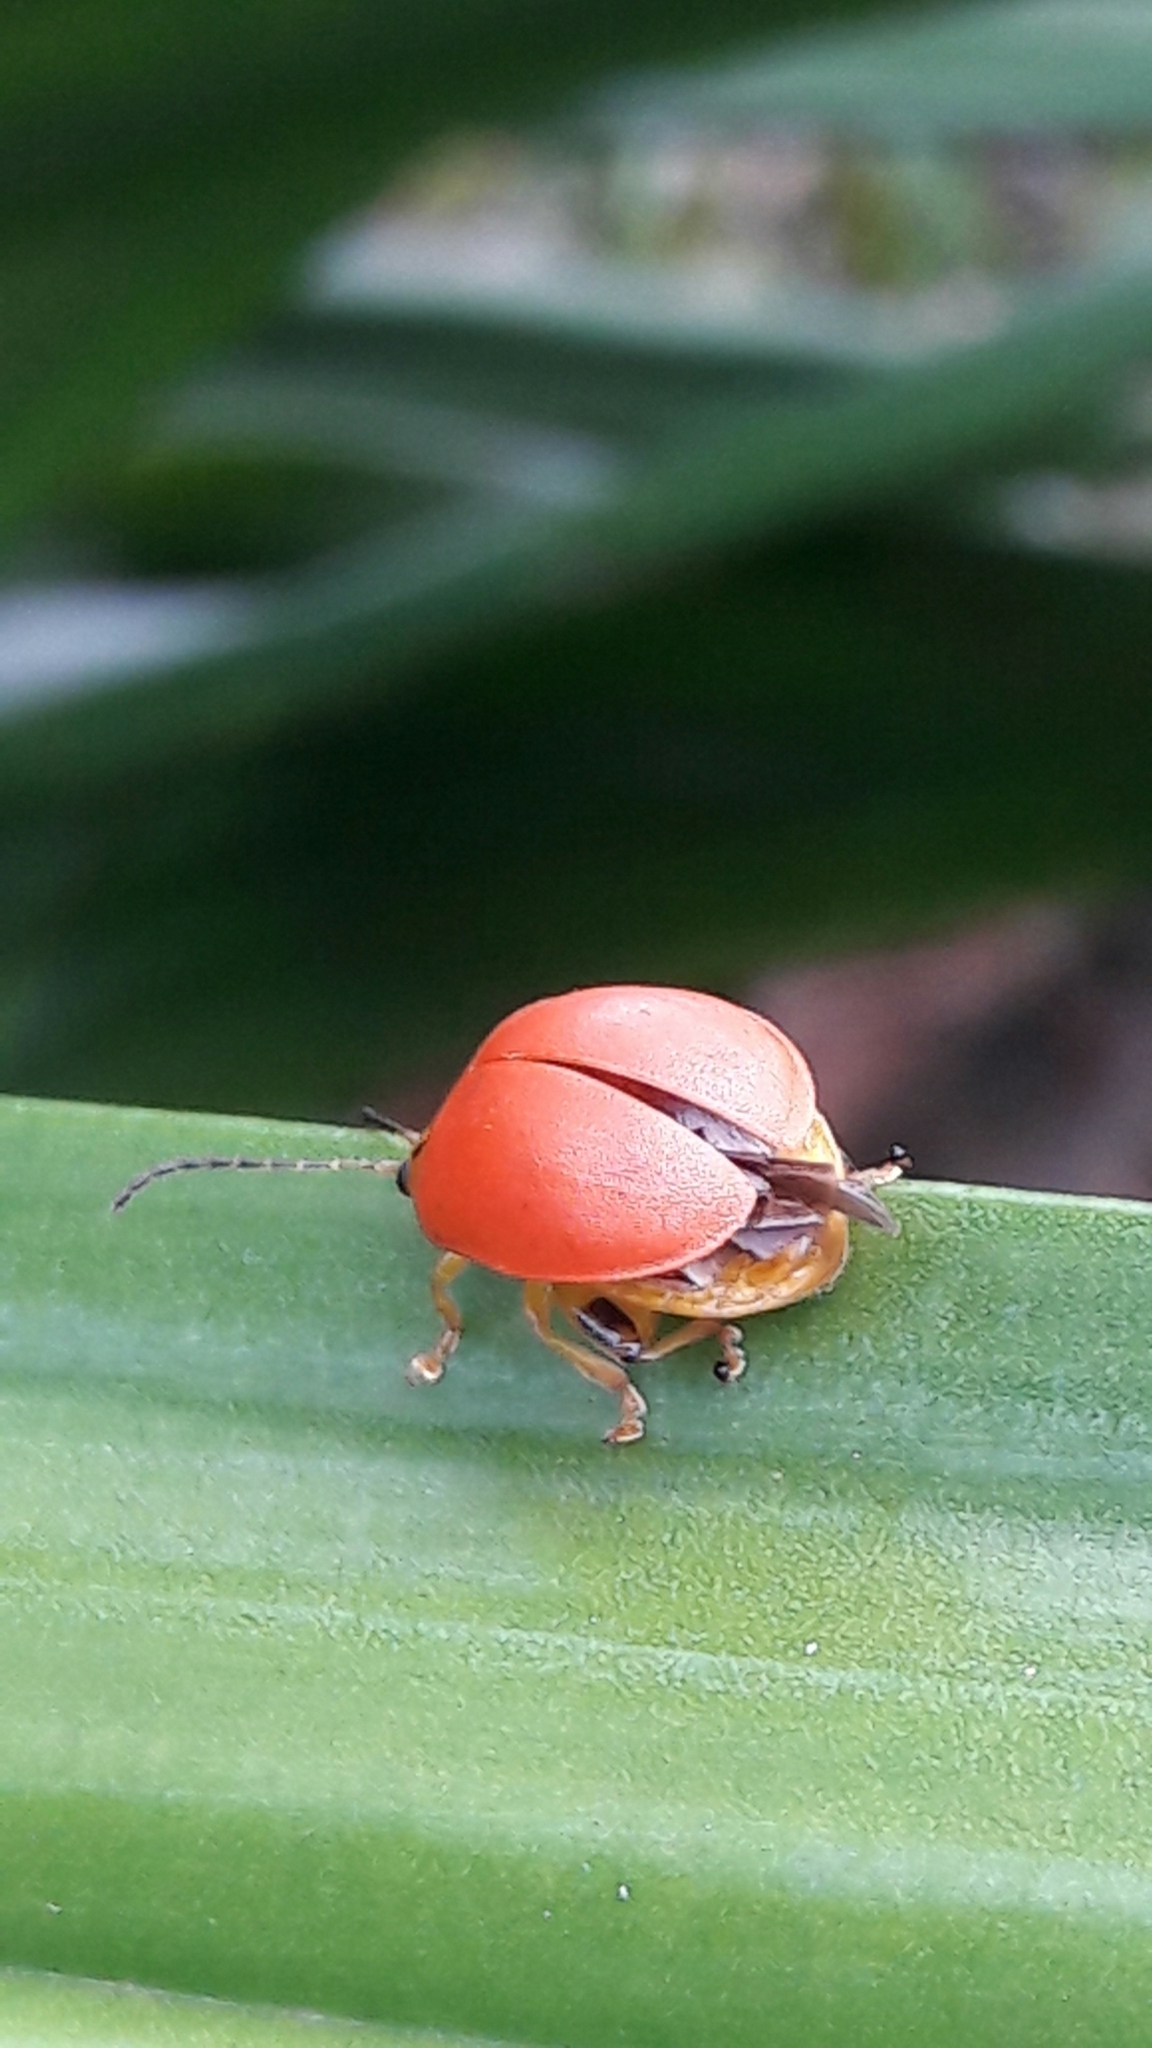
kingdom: Animalia
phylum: Arthropoda
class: Insecta
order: Coleoptera
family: Chrysomelidae
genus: Paranaita
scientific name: Paranaita
